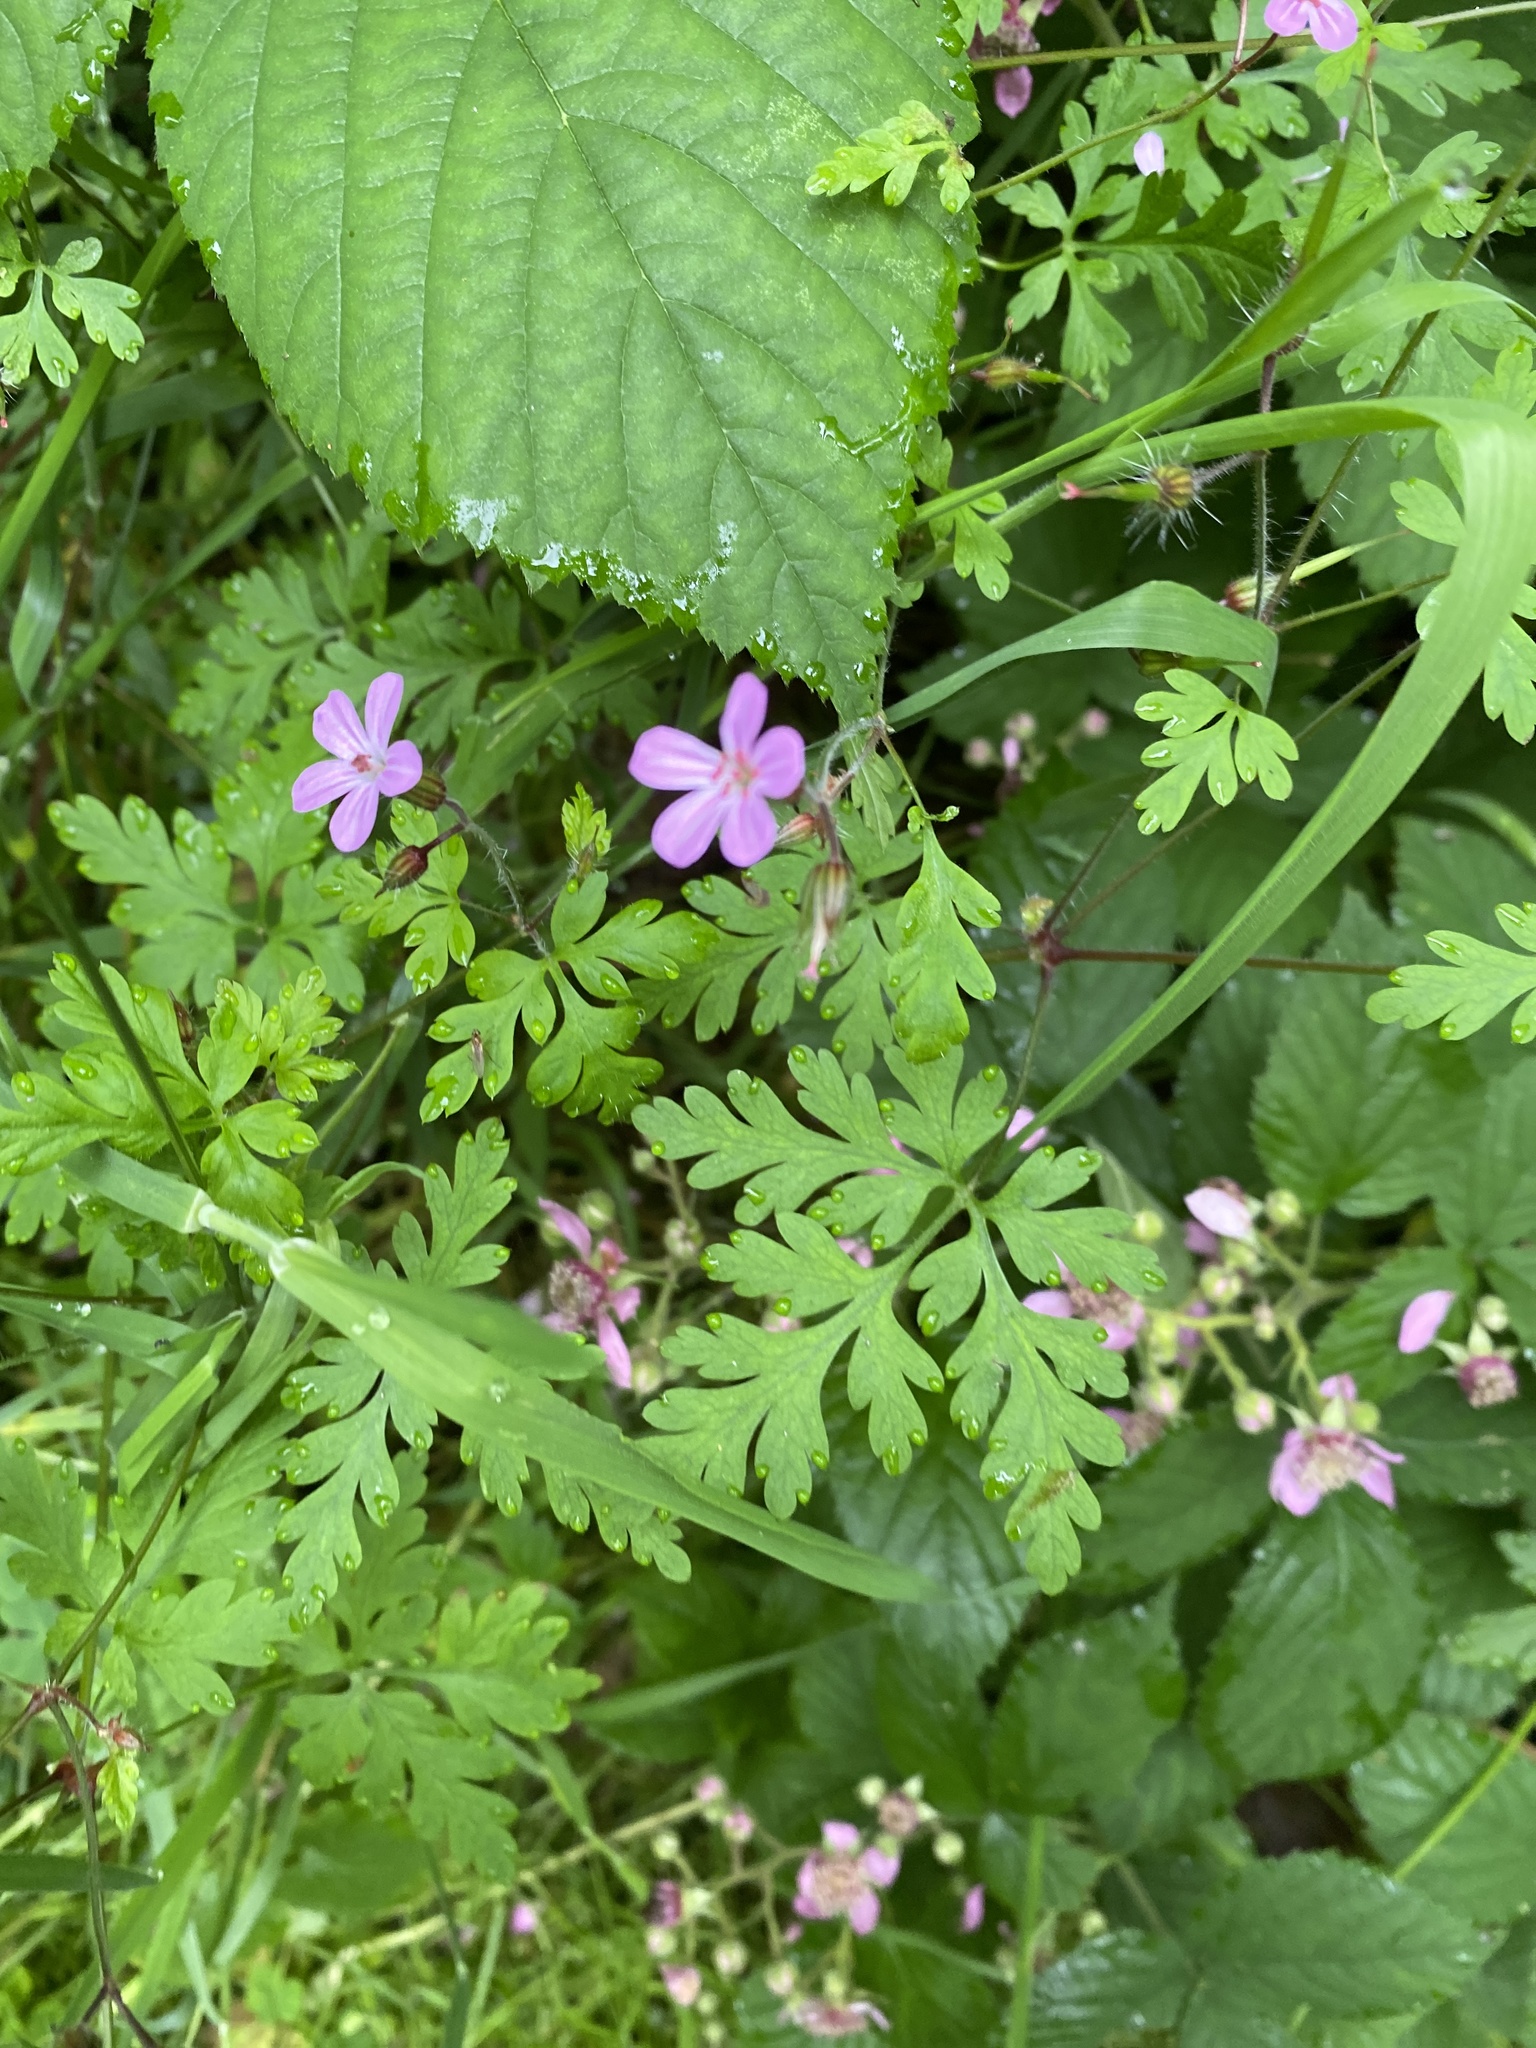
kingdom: Plantae
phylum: Tracheophyta
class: Magnoliopsida
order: Geraniales
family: Geraniaceae
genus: Geranium
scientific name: Geranium robertianum
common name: Herb-robert
